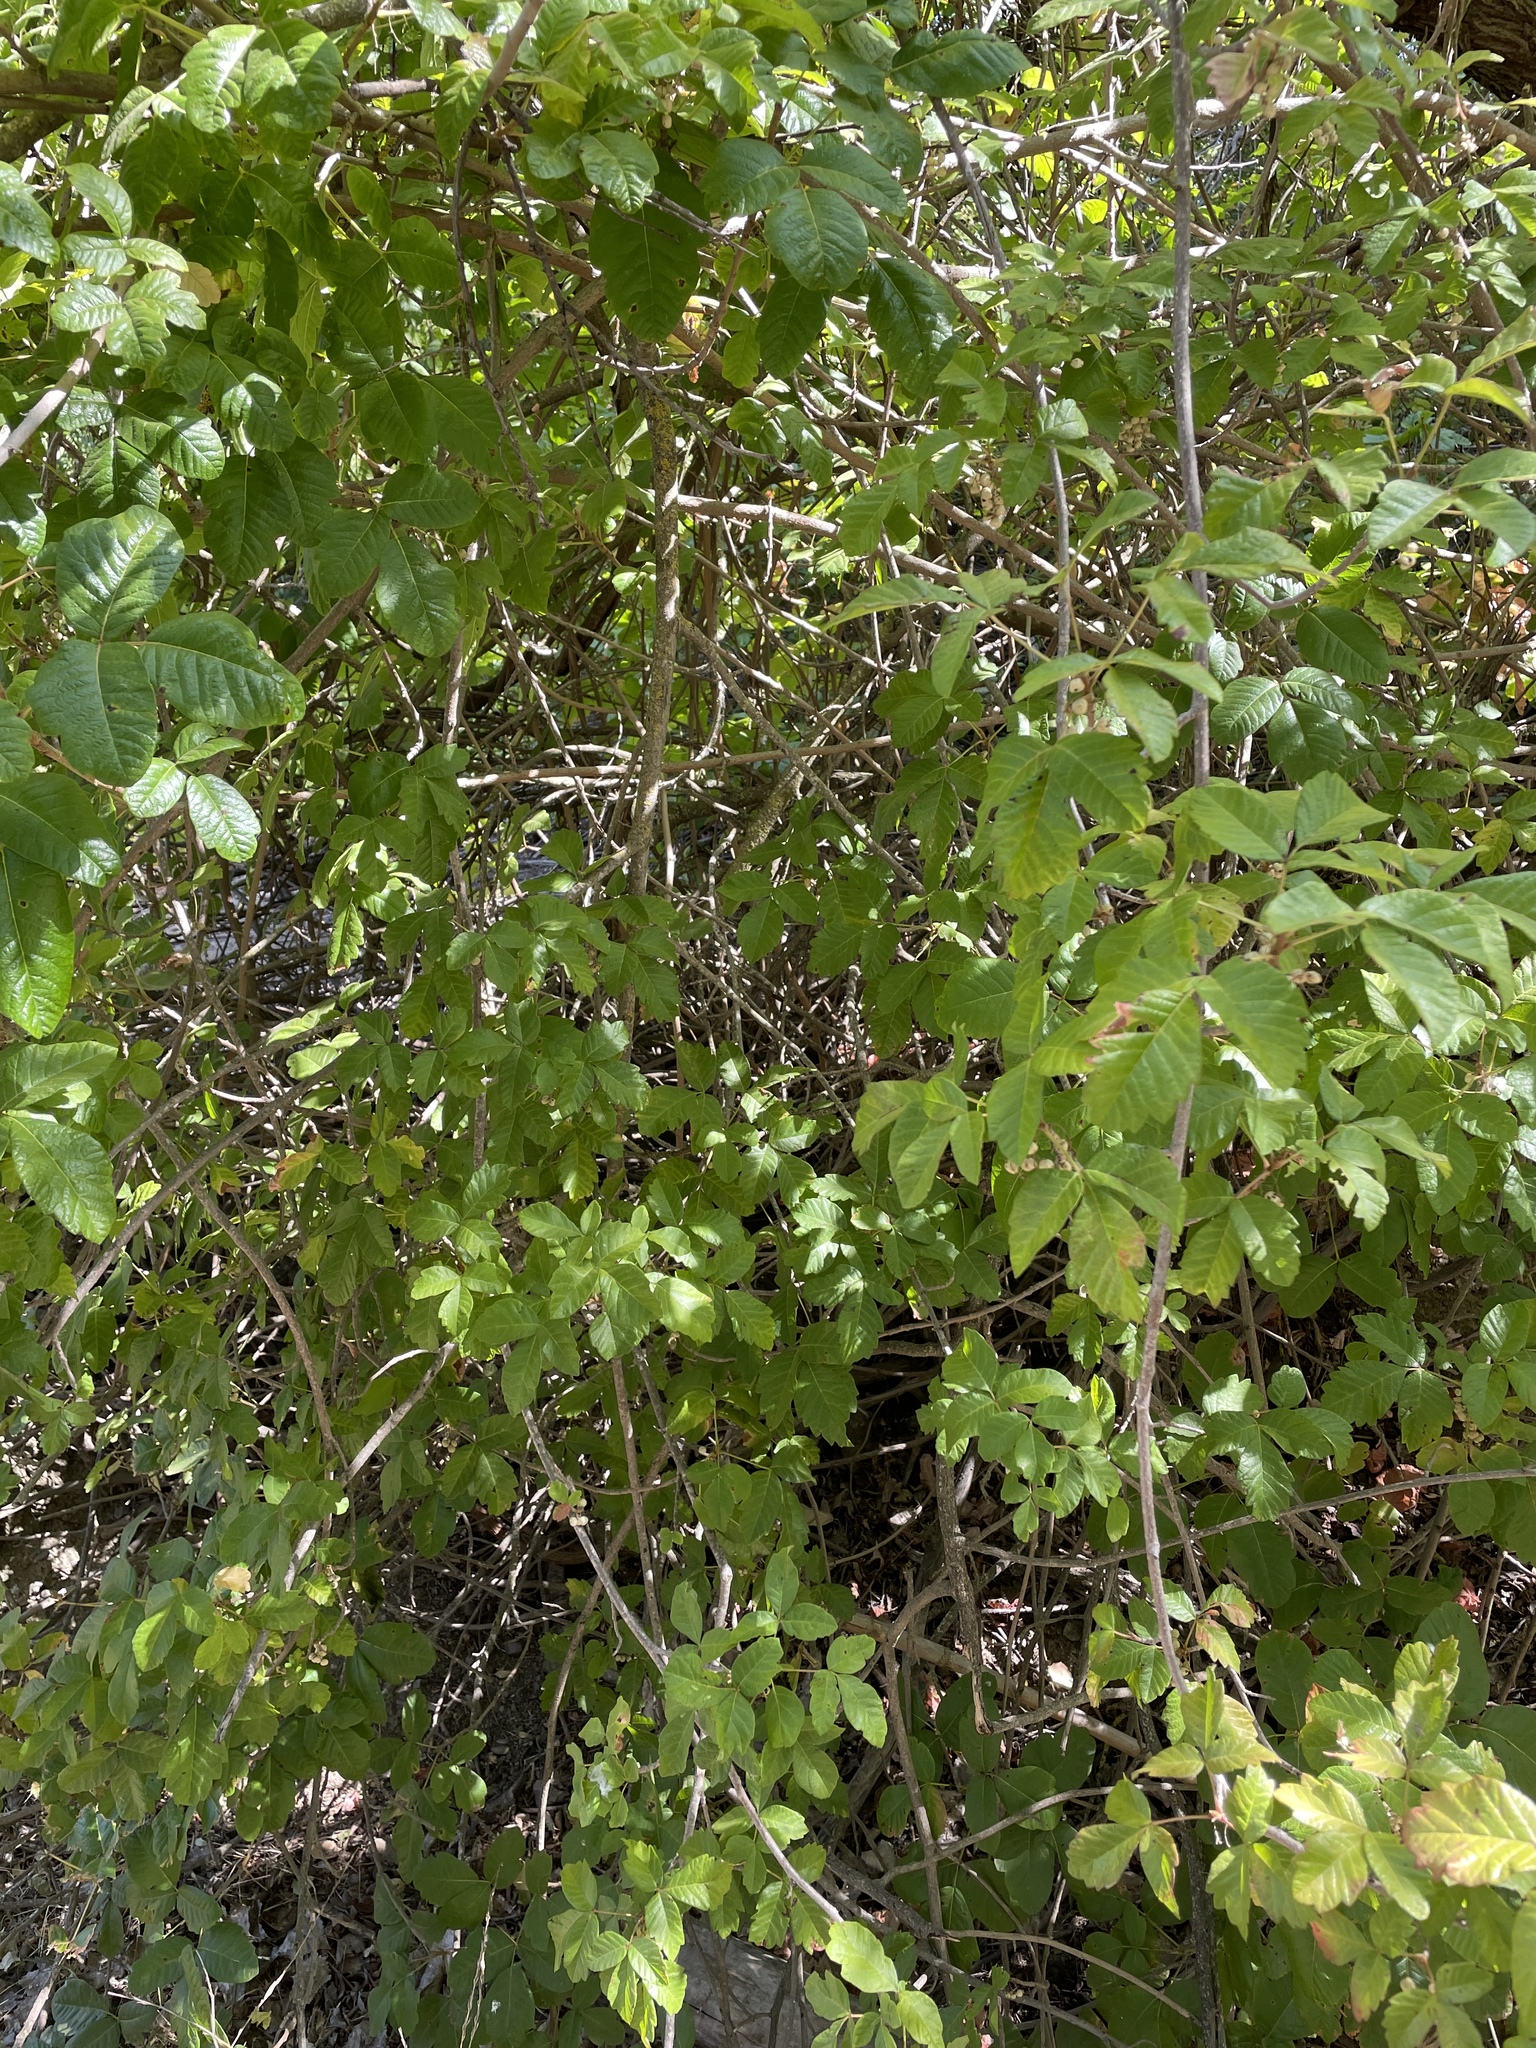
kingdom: Plantae
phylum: Tracheophyta
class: Magnoliopsida
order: Sapindales
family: Anacardiaceae
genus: Toxicodendron
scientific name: Toxicodendron diversilobum
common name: Pacific poison-oak
